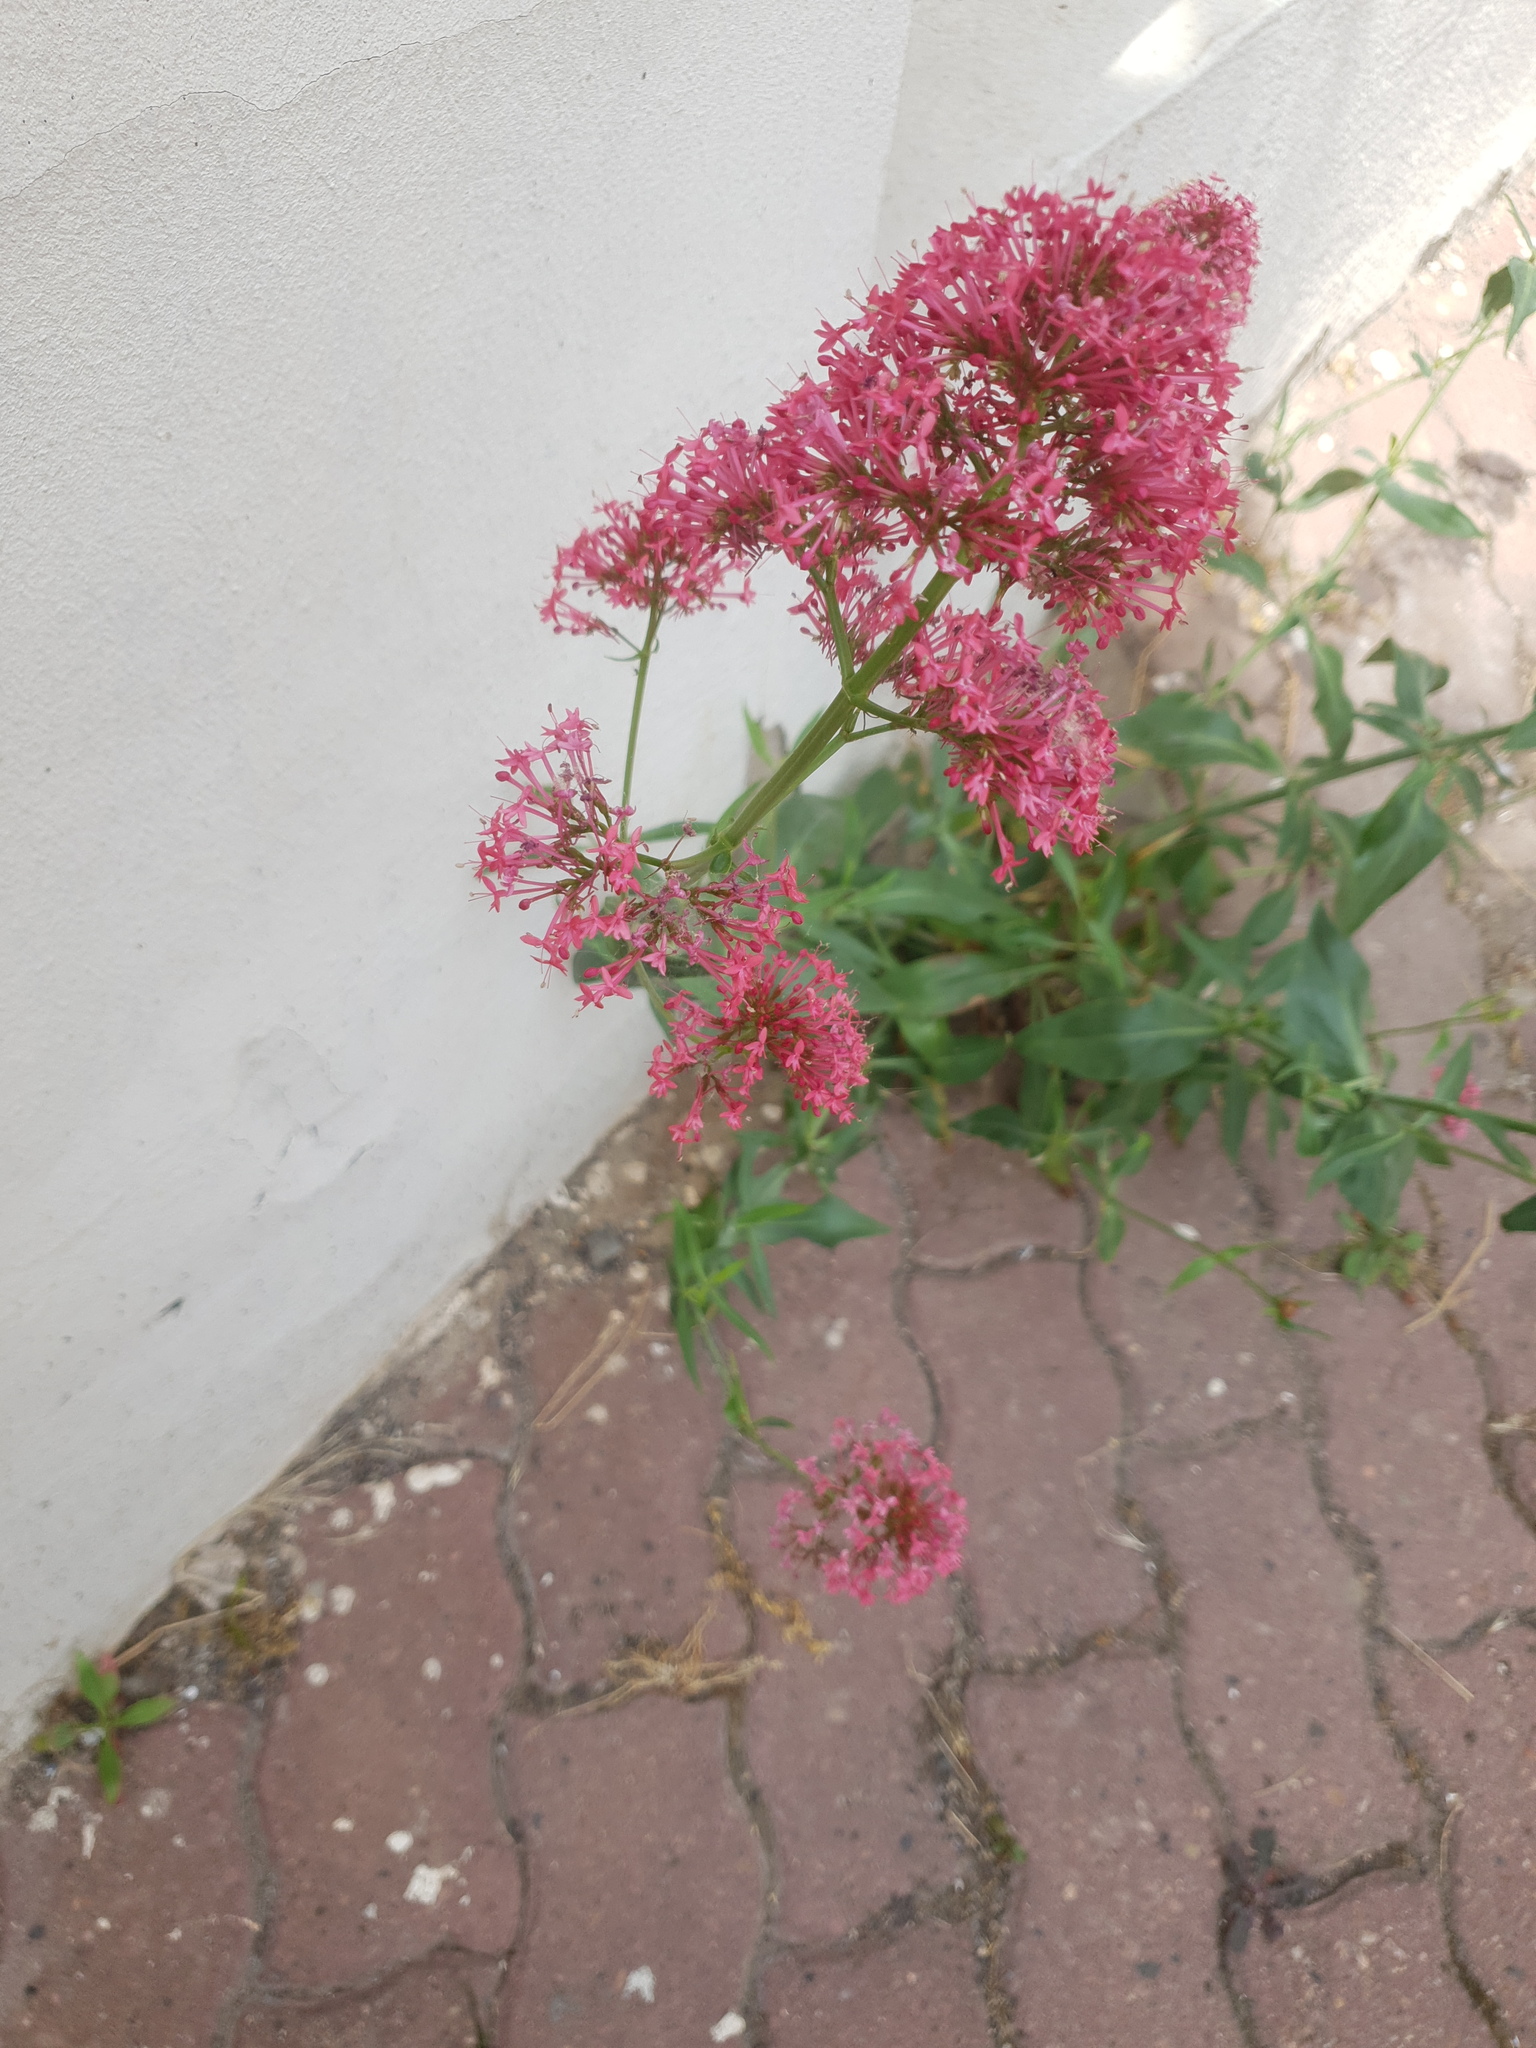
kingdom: Plantae
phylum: Tracheophyta
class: Magnoliopsida
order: Dipsacales
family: Caprifoliaceae
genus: Centranthus
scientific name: Centranthus ruber
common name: Red valerian
